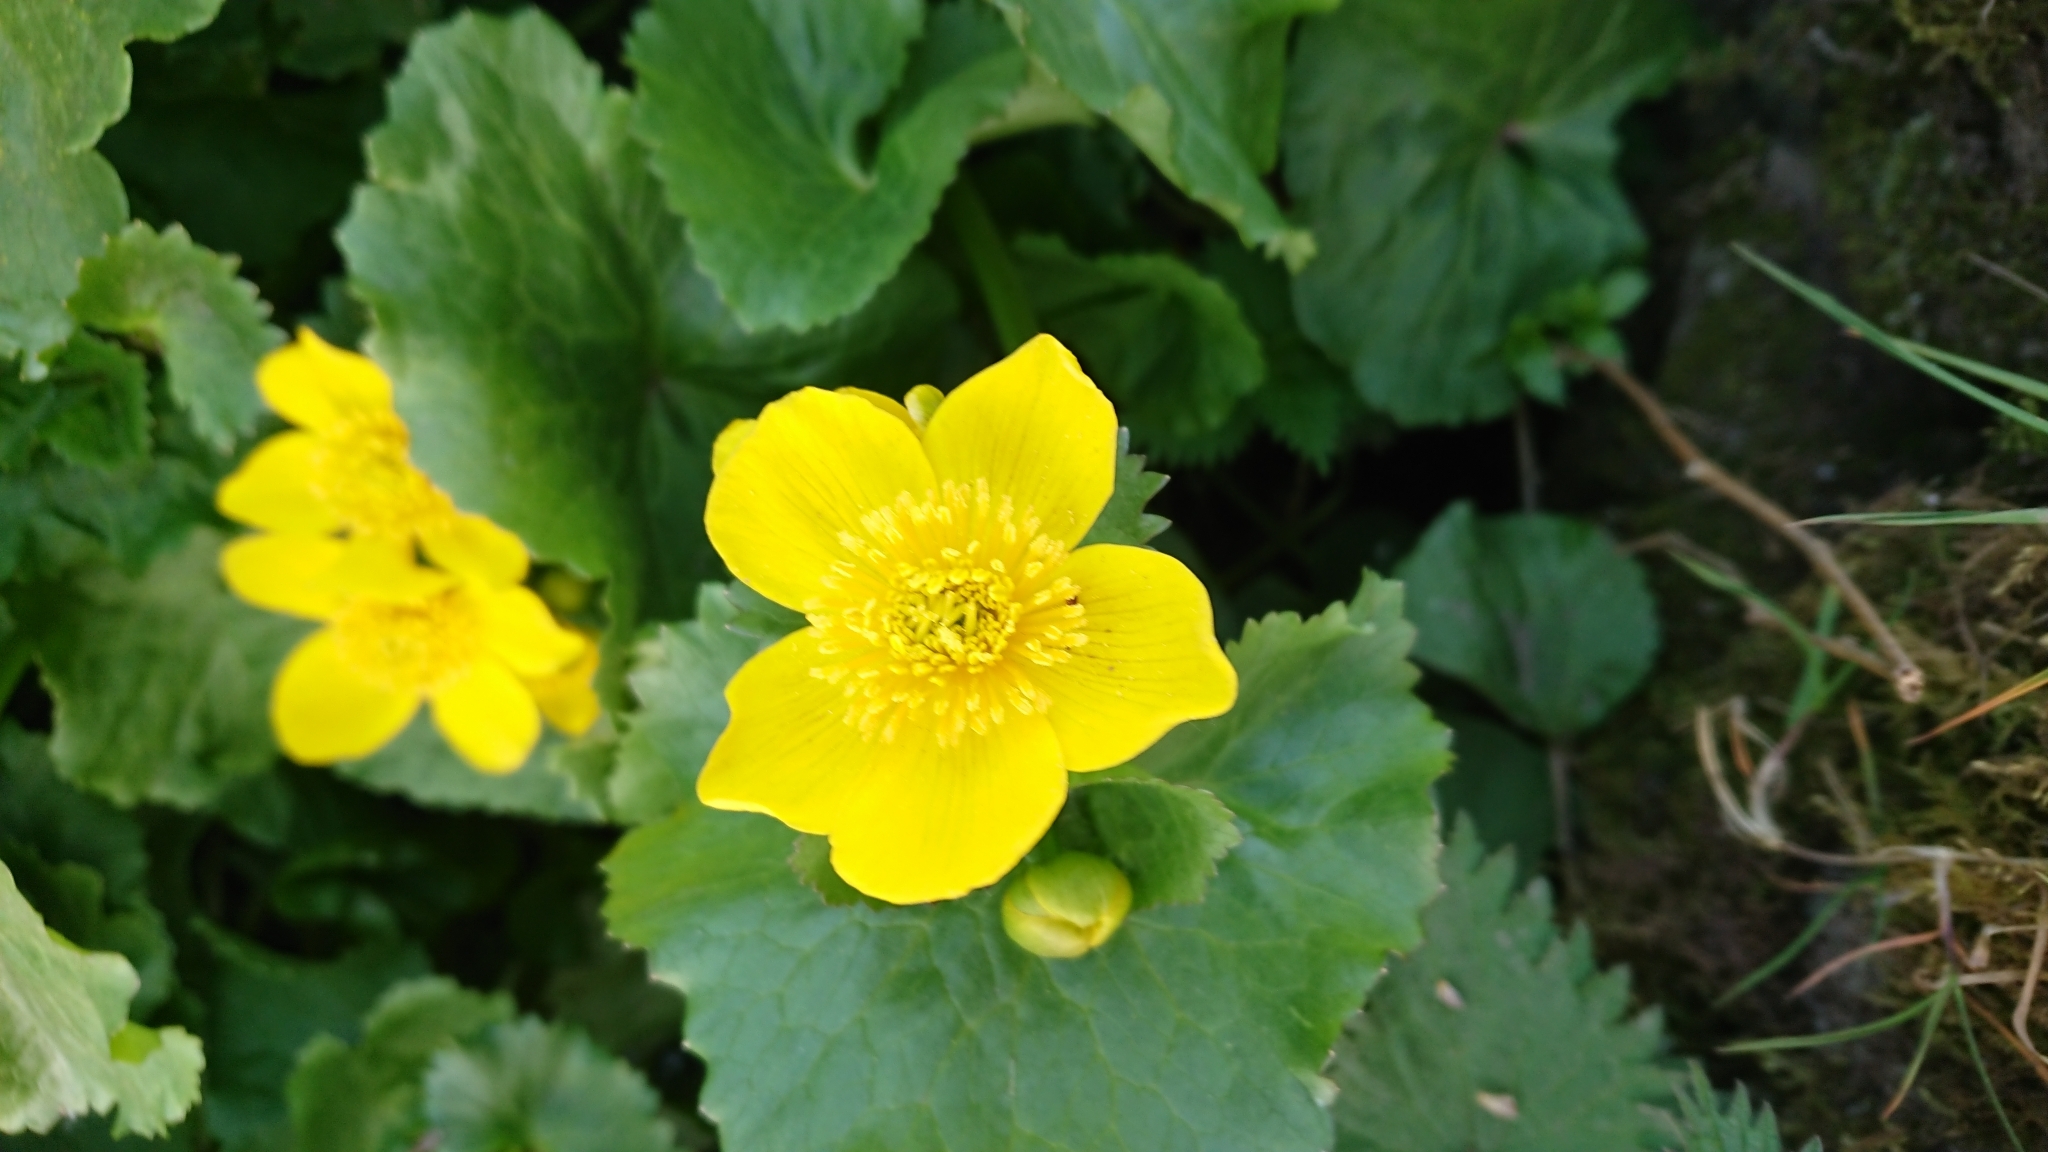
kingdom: Plantae
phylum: Tracheophyta
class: Magnoliopsida
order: Ranunculales
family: Ranunculaceae
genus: Caltha
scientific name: Caltha palustris
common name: Marsh marigold
